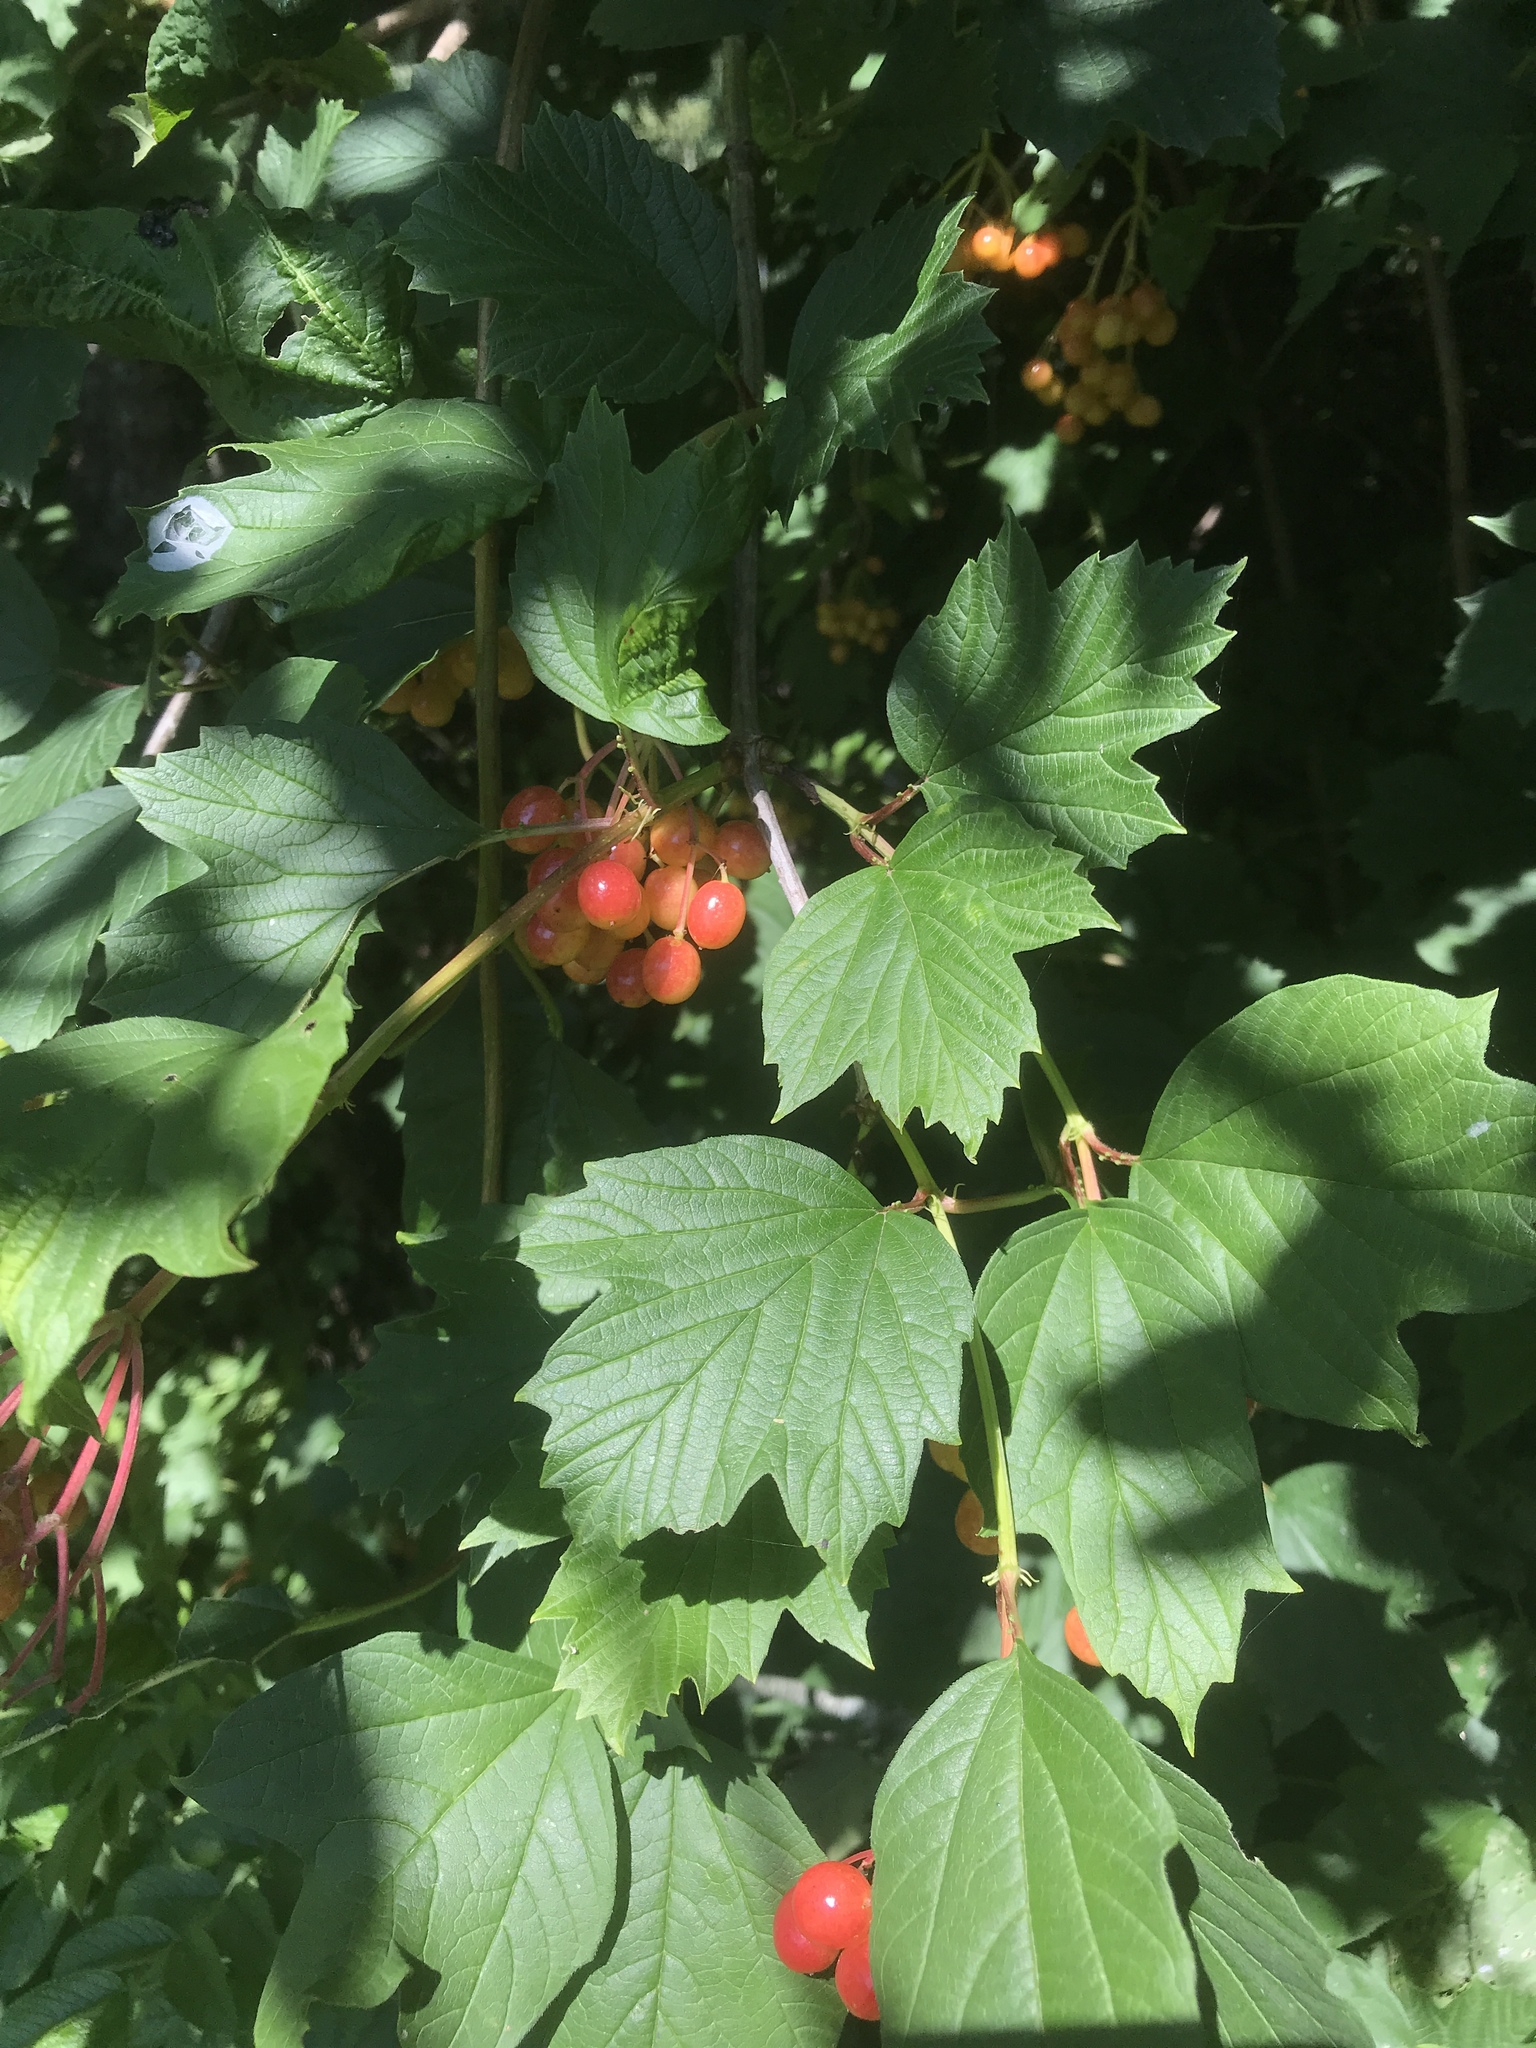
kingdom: Plantae
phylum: Tracheophyta
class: Magnoliopsida
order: Dipsacales
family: Viburnaceae
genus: Viburnum
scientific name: Viburnum opulus
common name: Guelder-rose
